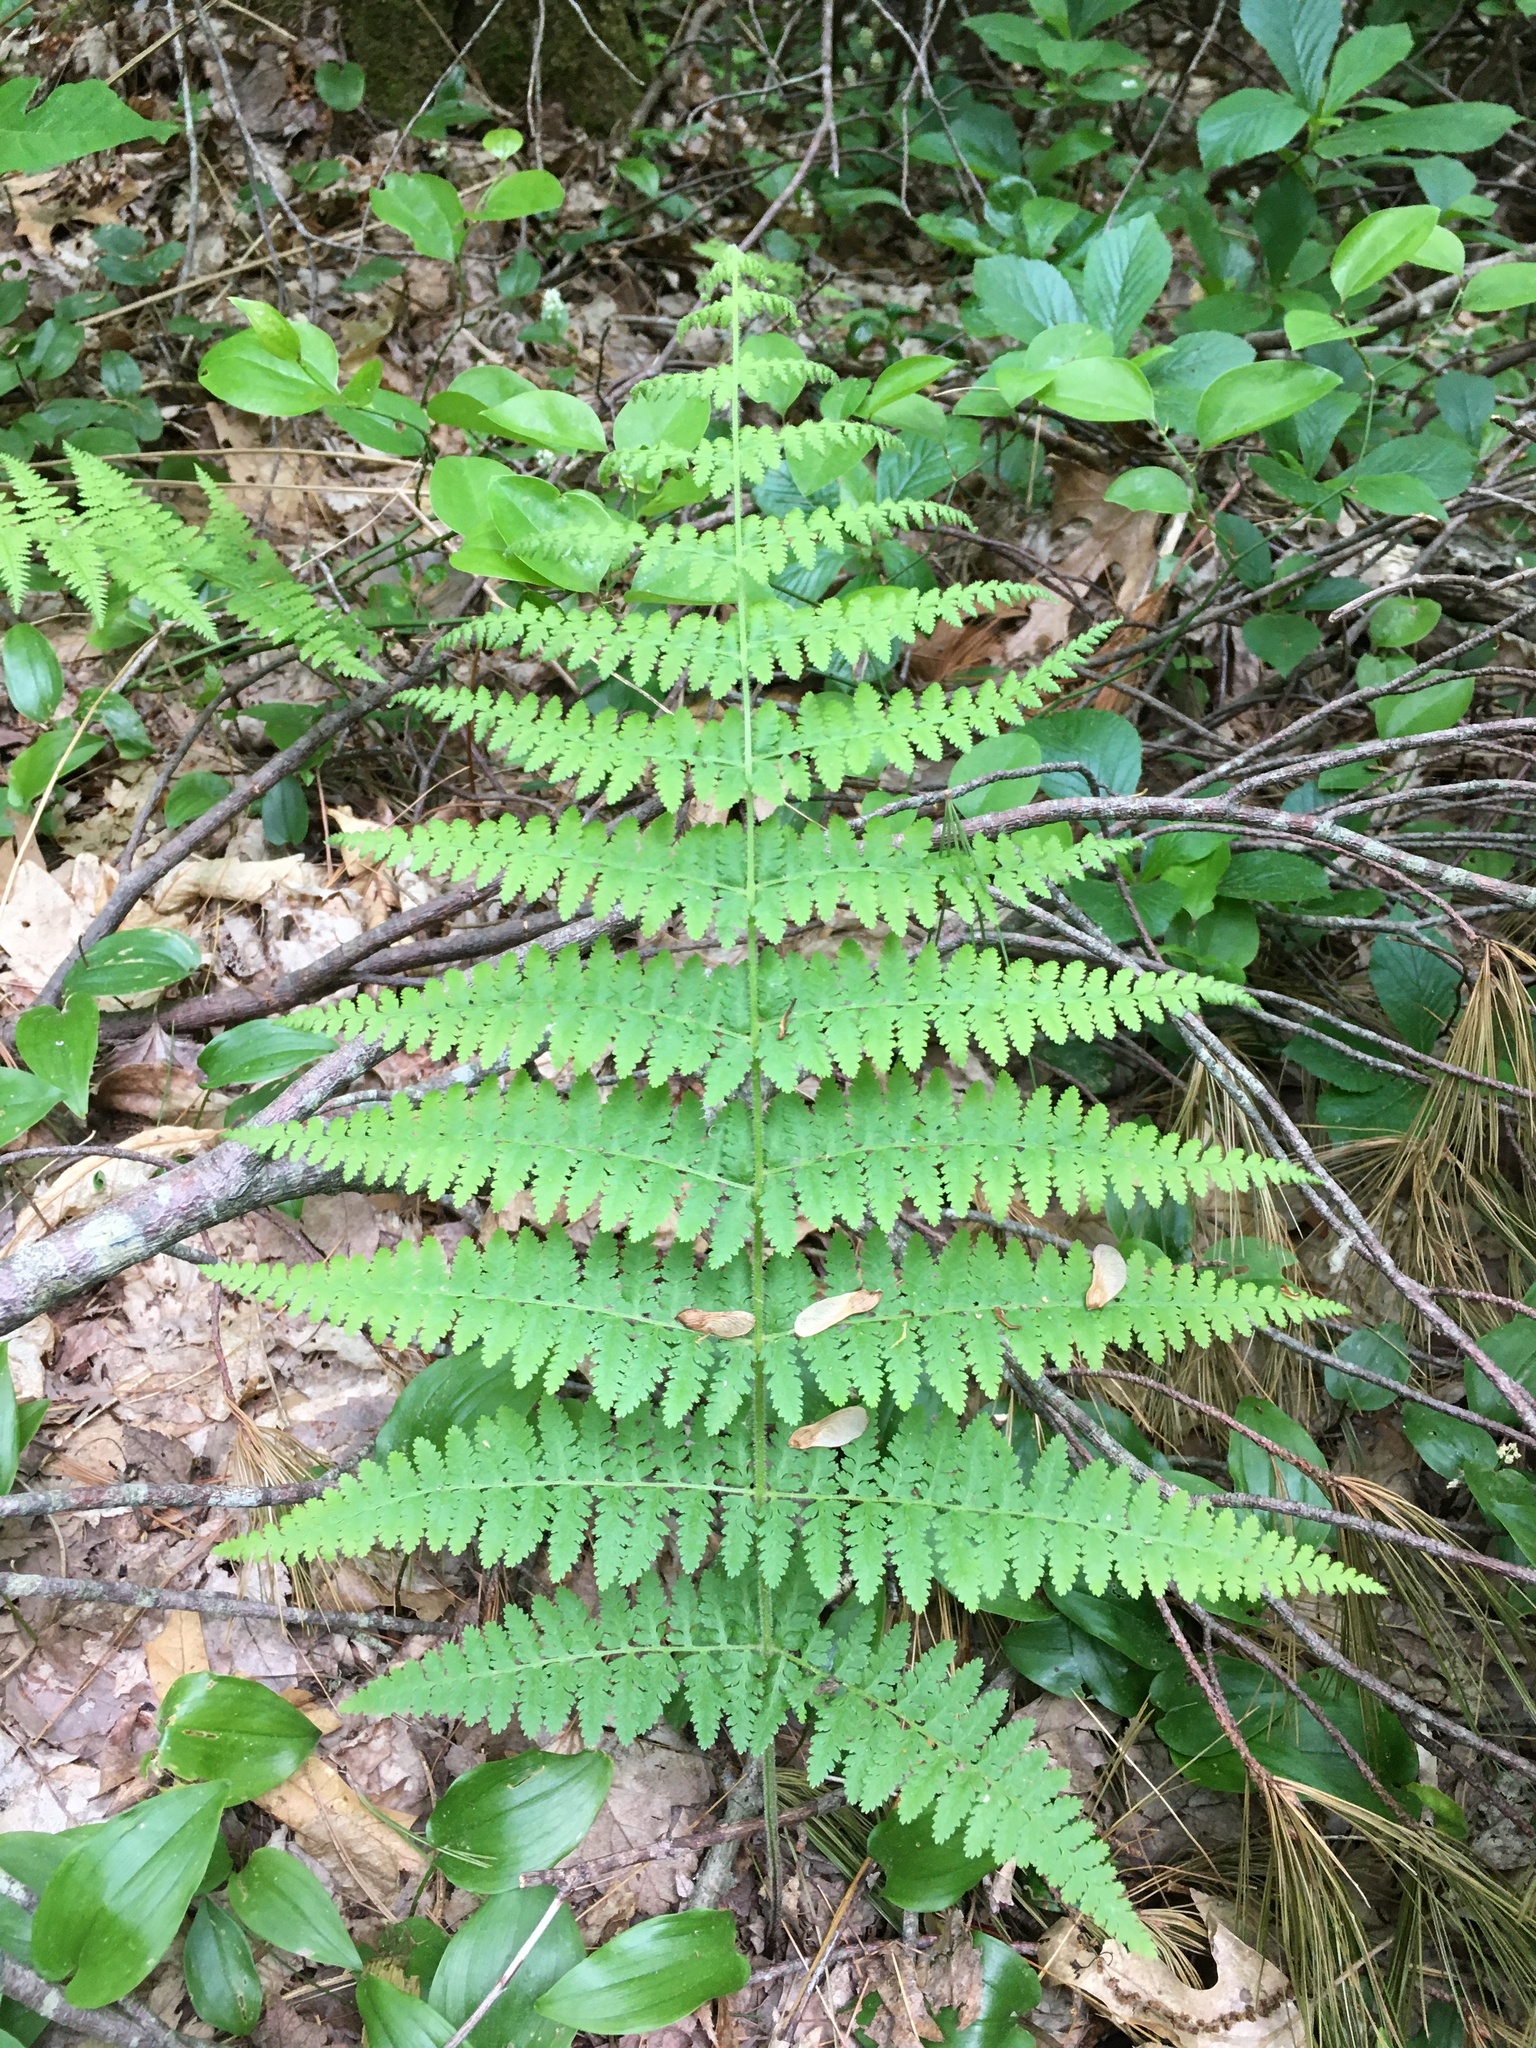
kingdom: Plantae
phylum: Tracheophyta
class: Polypodiopsida
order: Polypodiales
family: Dennstaedtiaceae
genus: Sitobolium
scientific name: Sitobolium punctilobum
